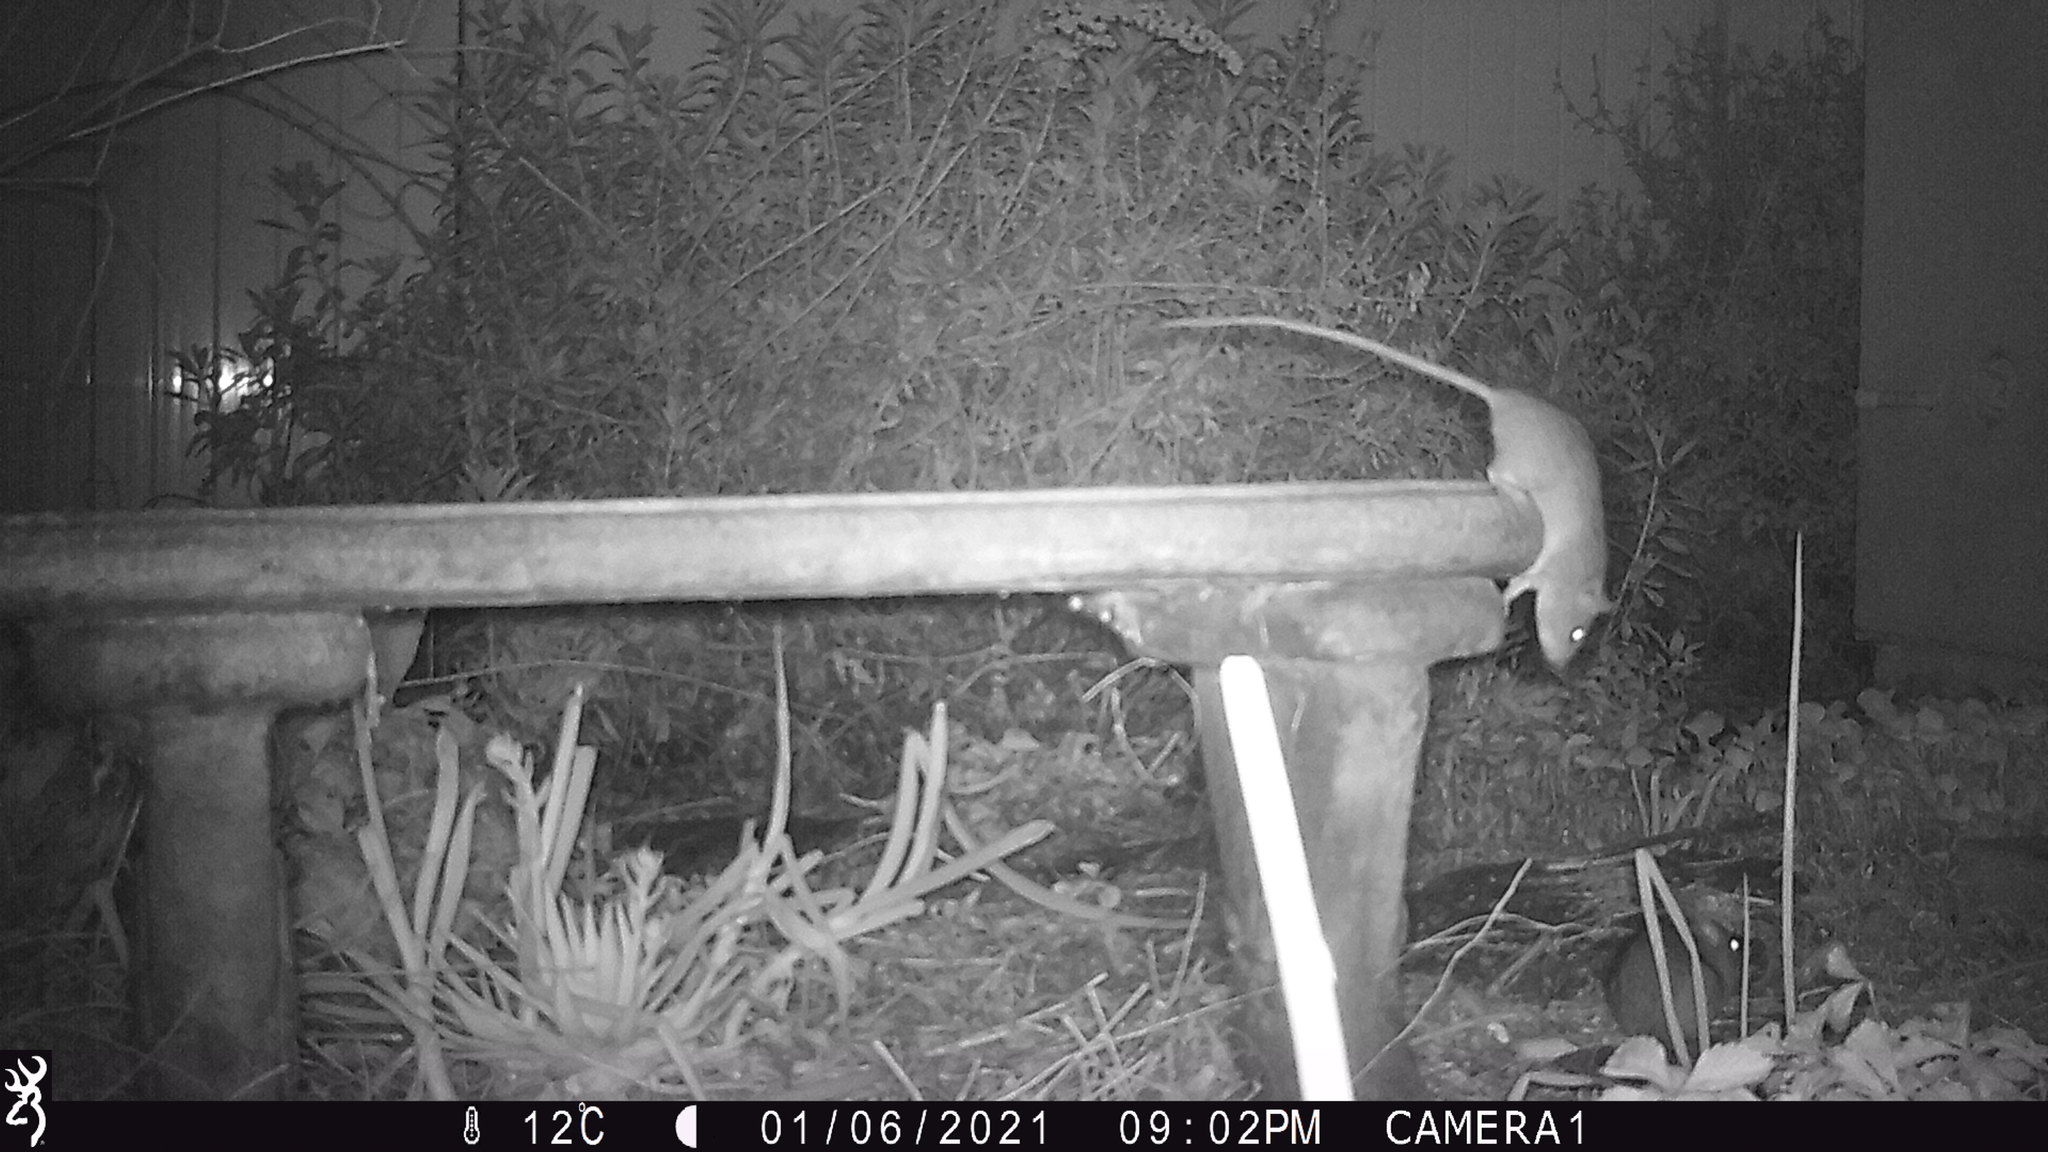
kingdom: Animalia
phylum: Chordata
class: Mammalia
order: Rodentia
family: Muridae
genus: Rattus
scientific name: Rattus rattus
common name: Black rat
